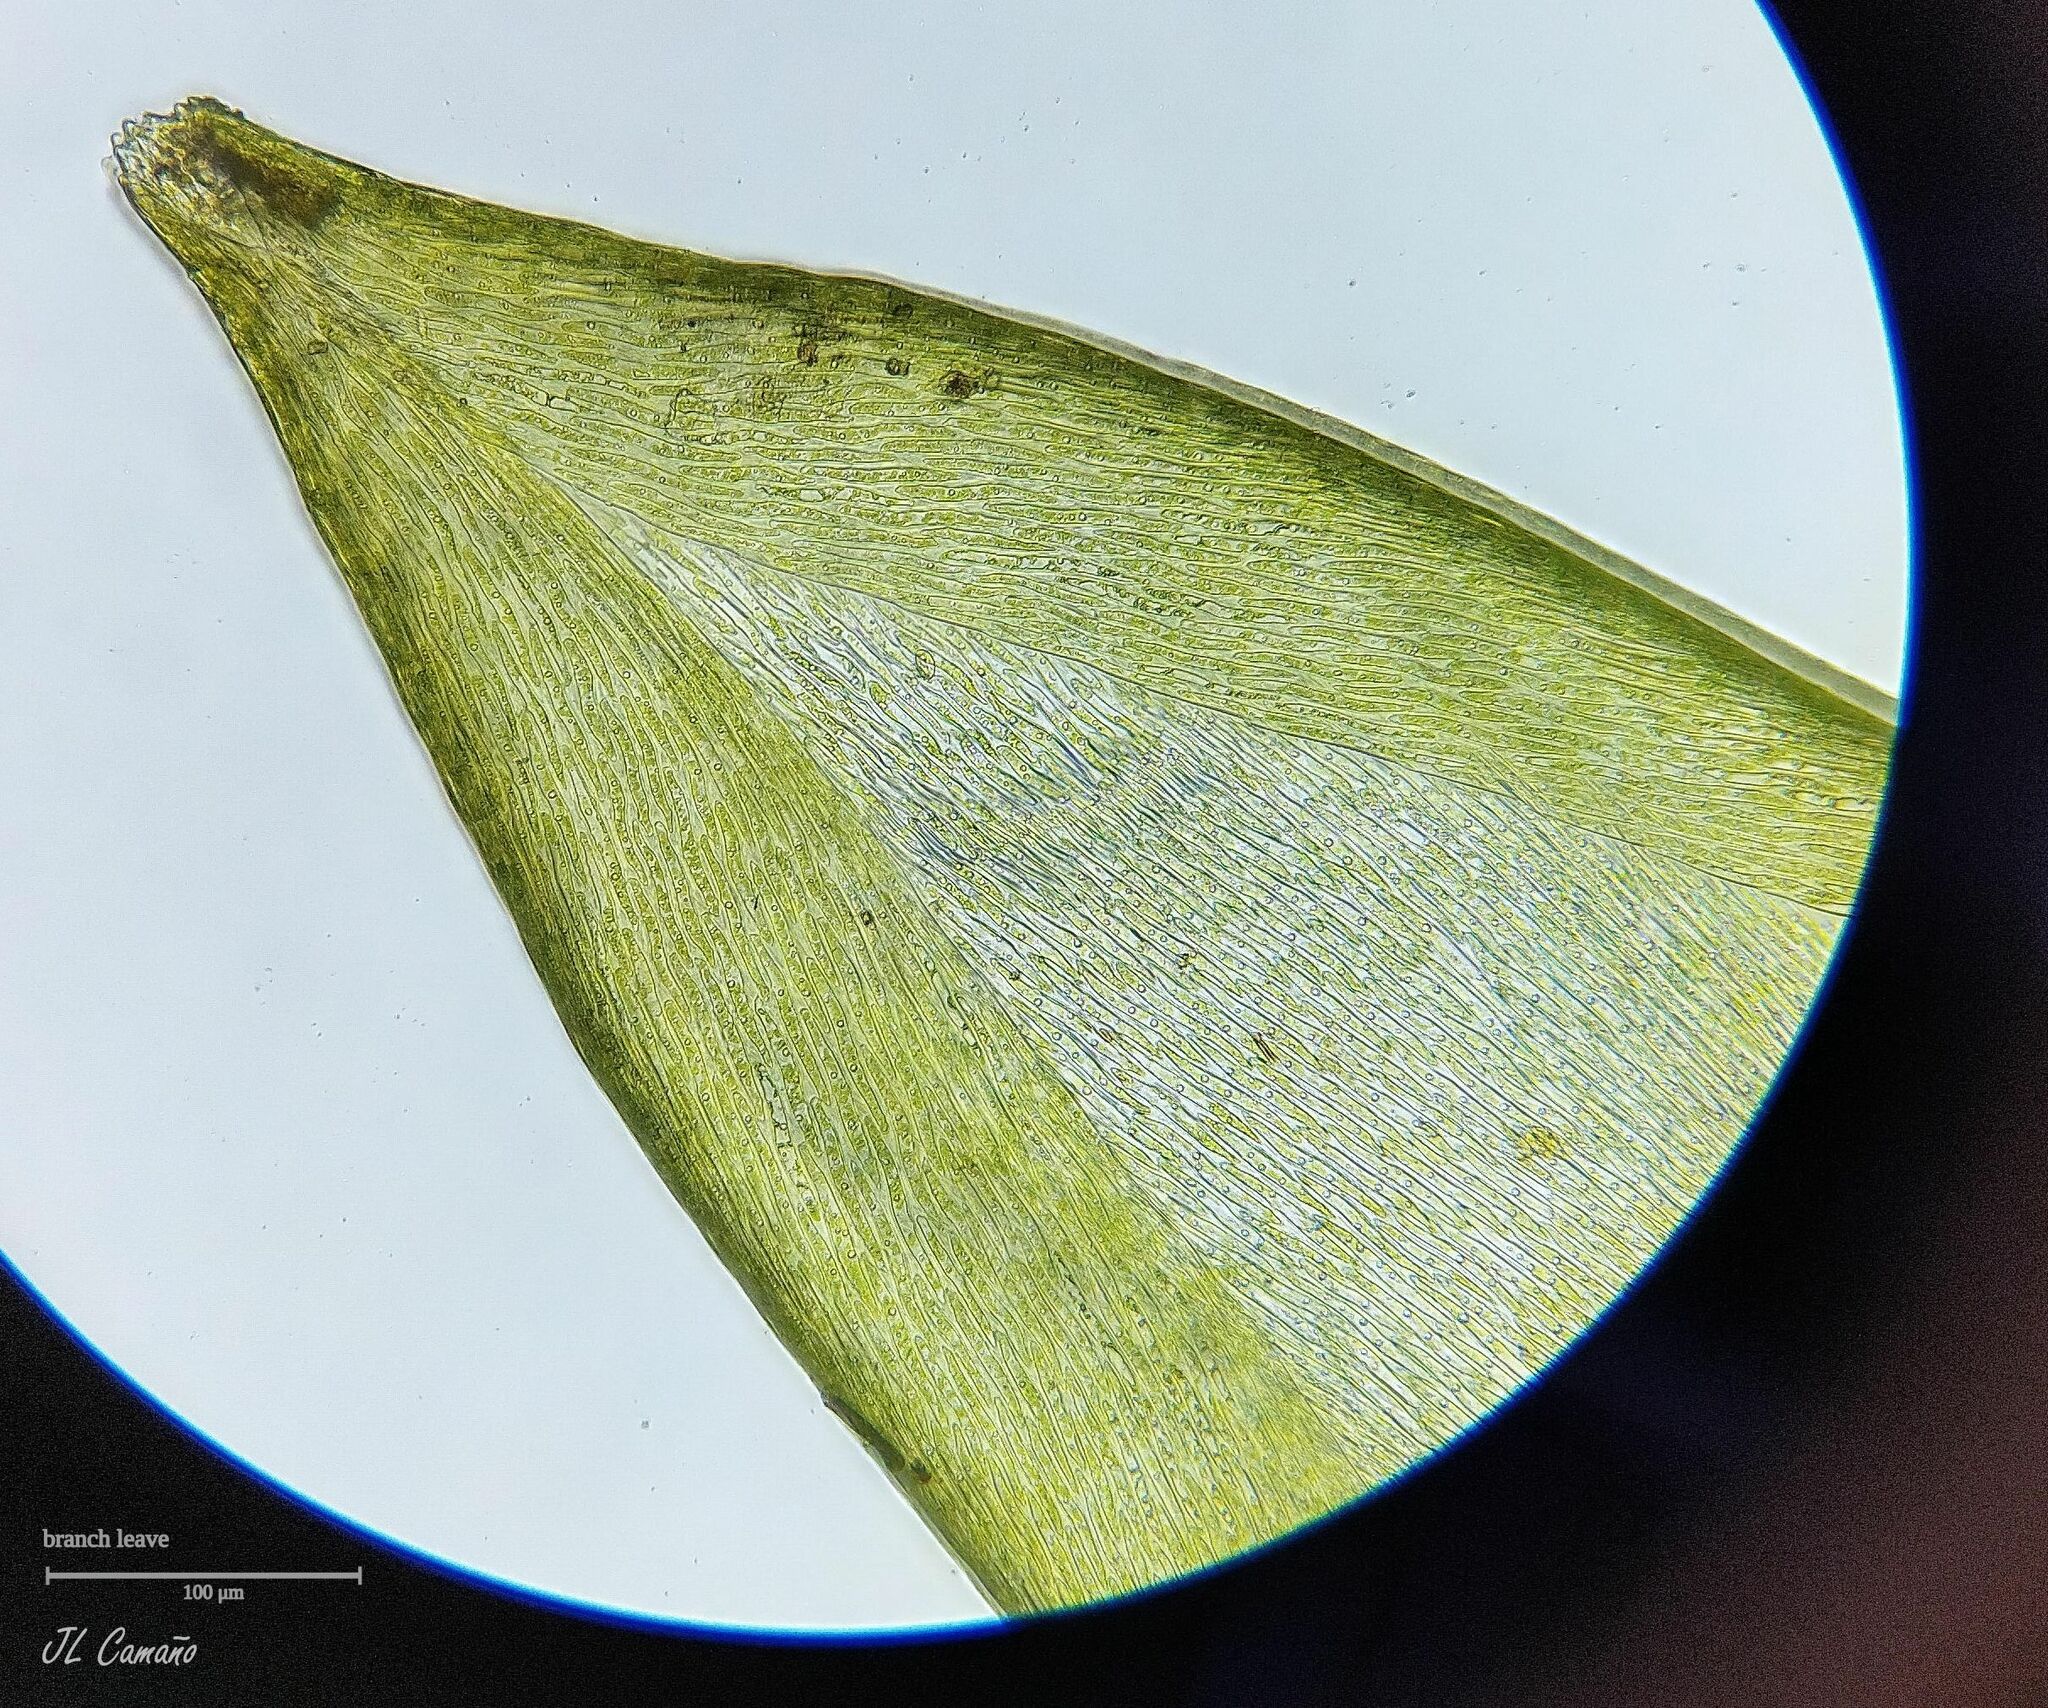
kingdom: Plantae
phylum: Bryophyta
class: Bryopsida
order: Hypnales
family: Hylocomiaceae
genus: Pleurozium
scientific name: Pleurozium schreberi
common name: Red-stemmed feather moss
